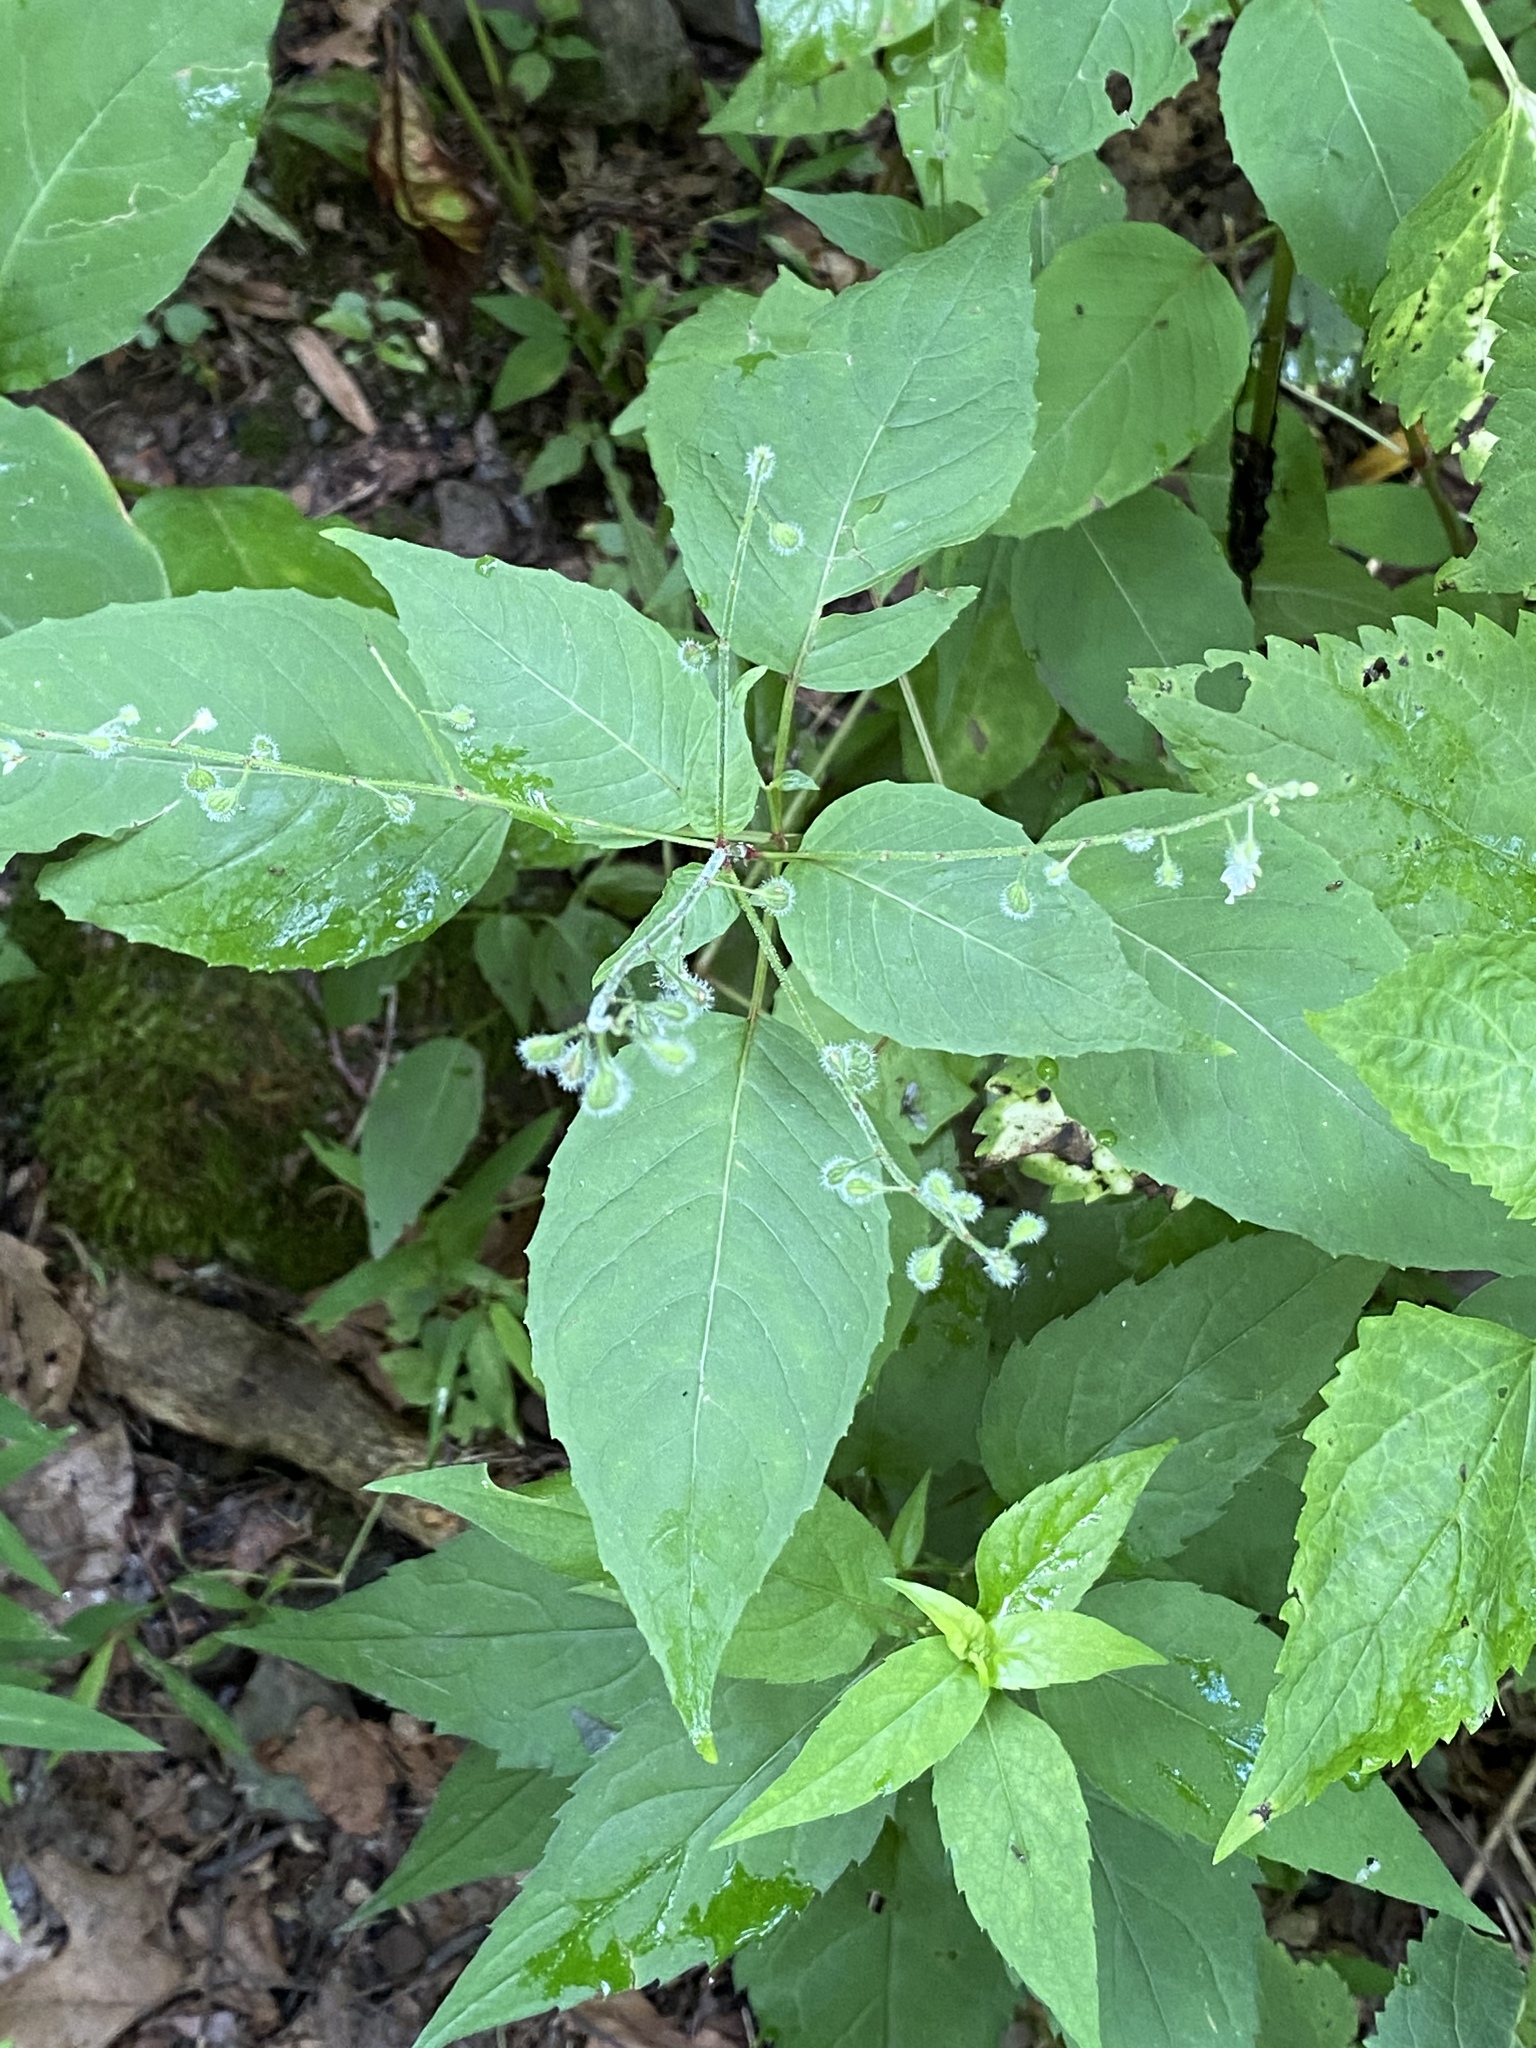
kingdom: Plantae
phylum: Tracheophyta
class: Magnoliopsida
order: Myrtales
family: Onagraceae
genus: Circaea
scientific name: Circaea canadensis
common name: Broad-leaved enchanter's nightshade
